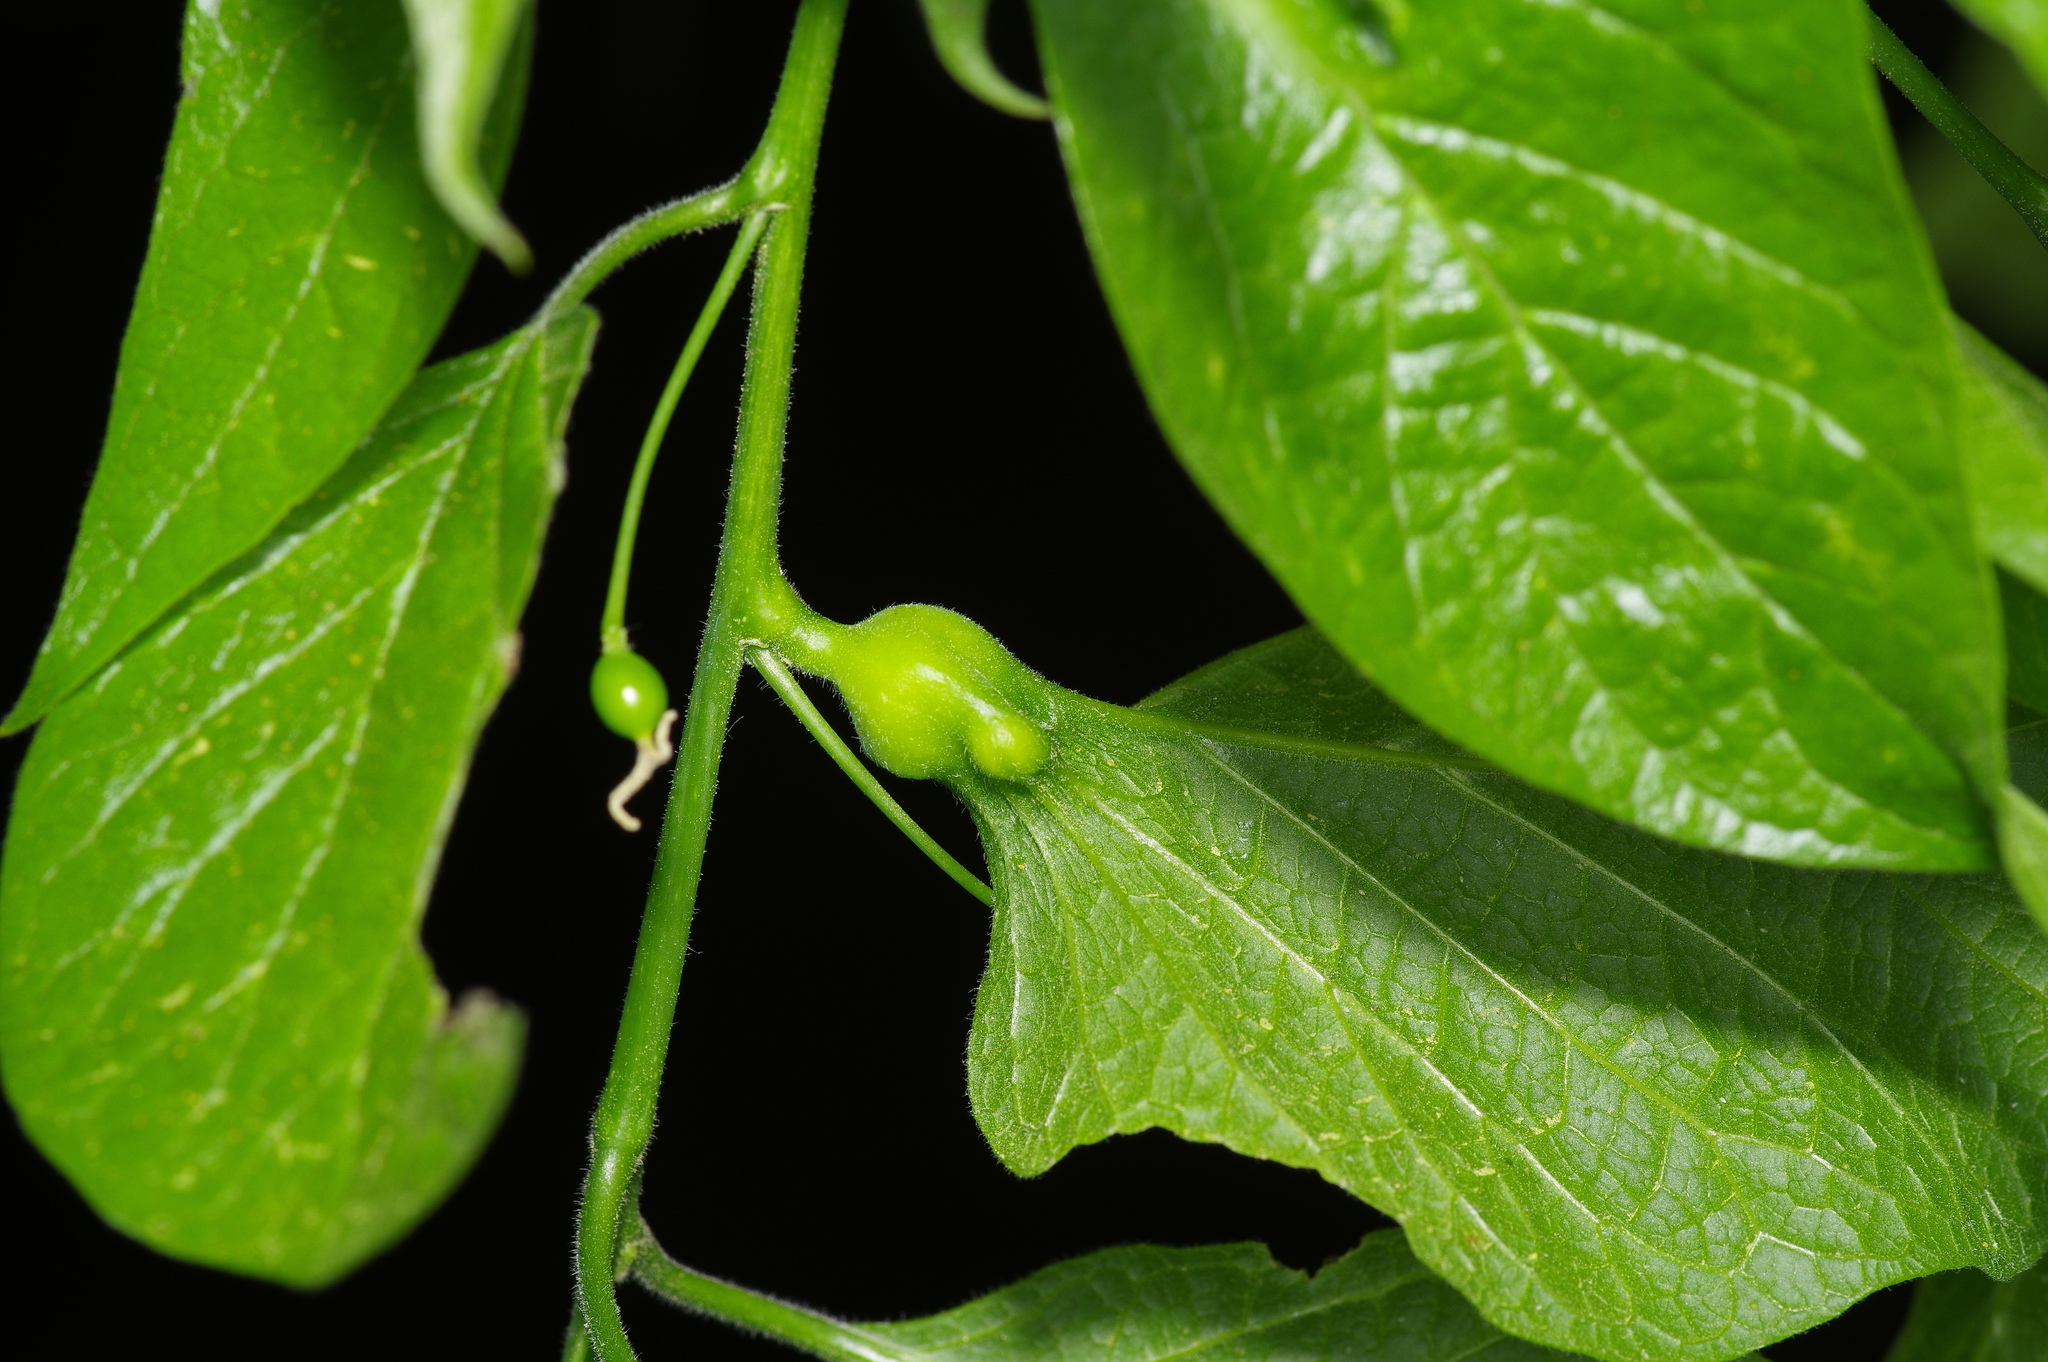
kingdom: Animalia
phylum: Arthropoda
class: Insecta
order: Hemiptera
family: Aphalaridae
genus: Pachypsylla
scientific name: Pachypsylla venusta
